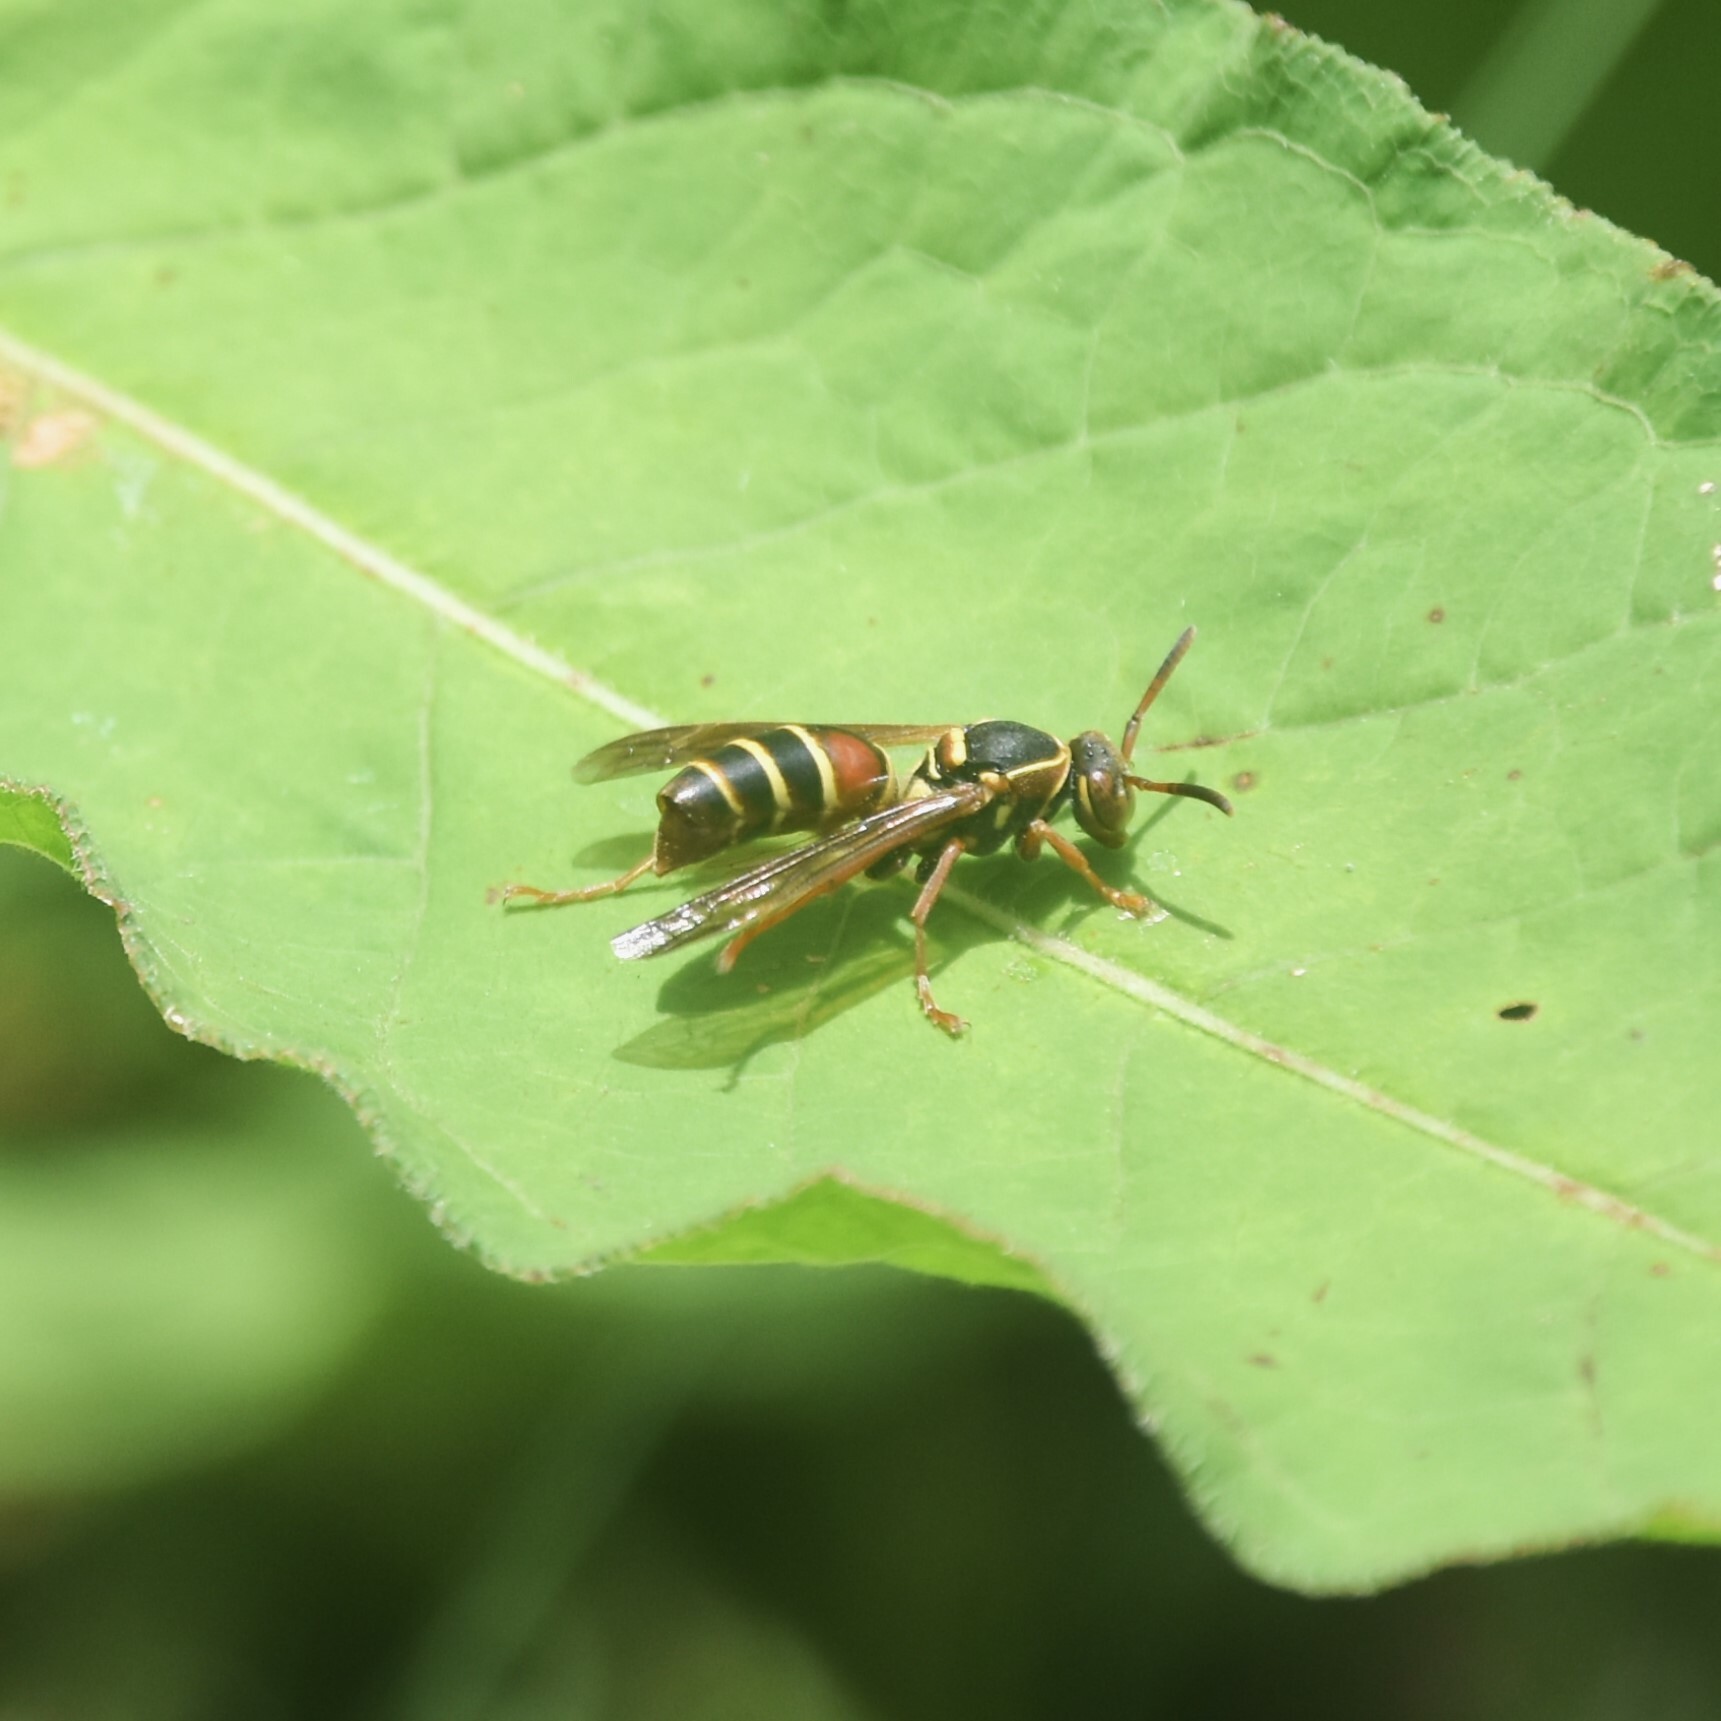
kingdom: Animalia
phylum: Arthropoda
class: Insecta
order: Hymenoptera
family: Eumenidae
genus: Knemodynerus
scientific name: Knemodynerus multimaculatus
